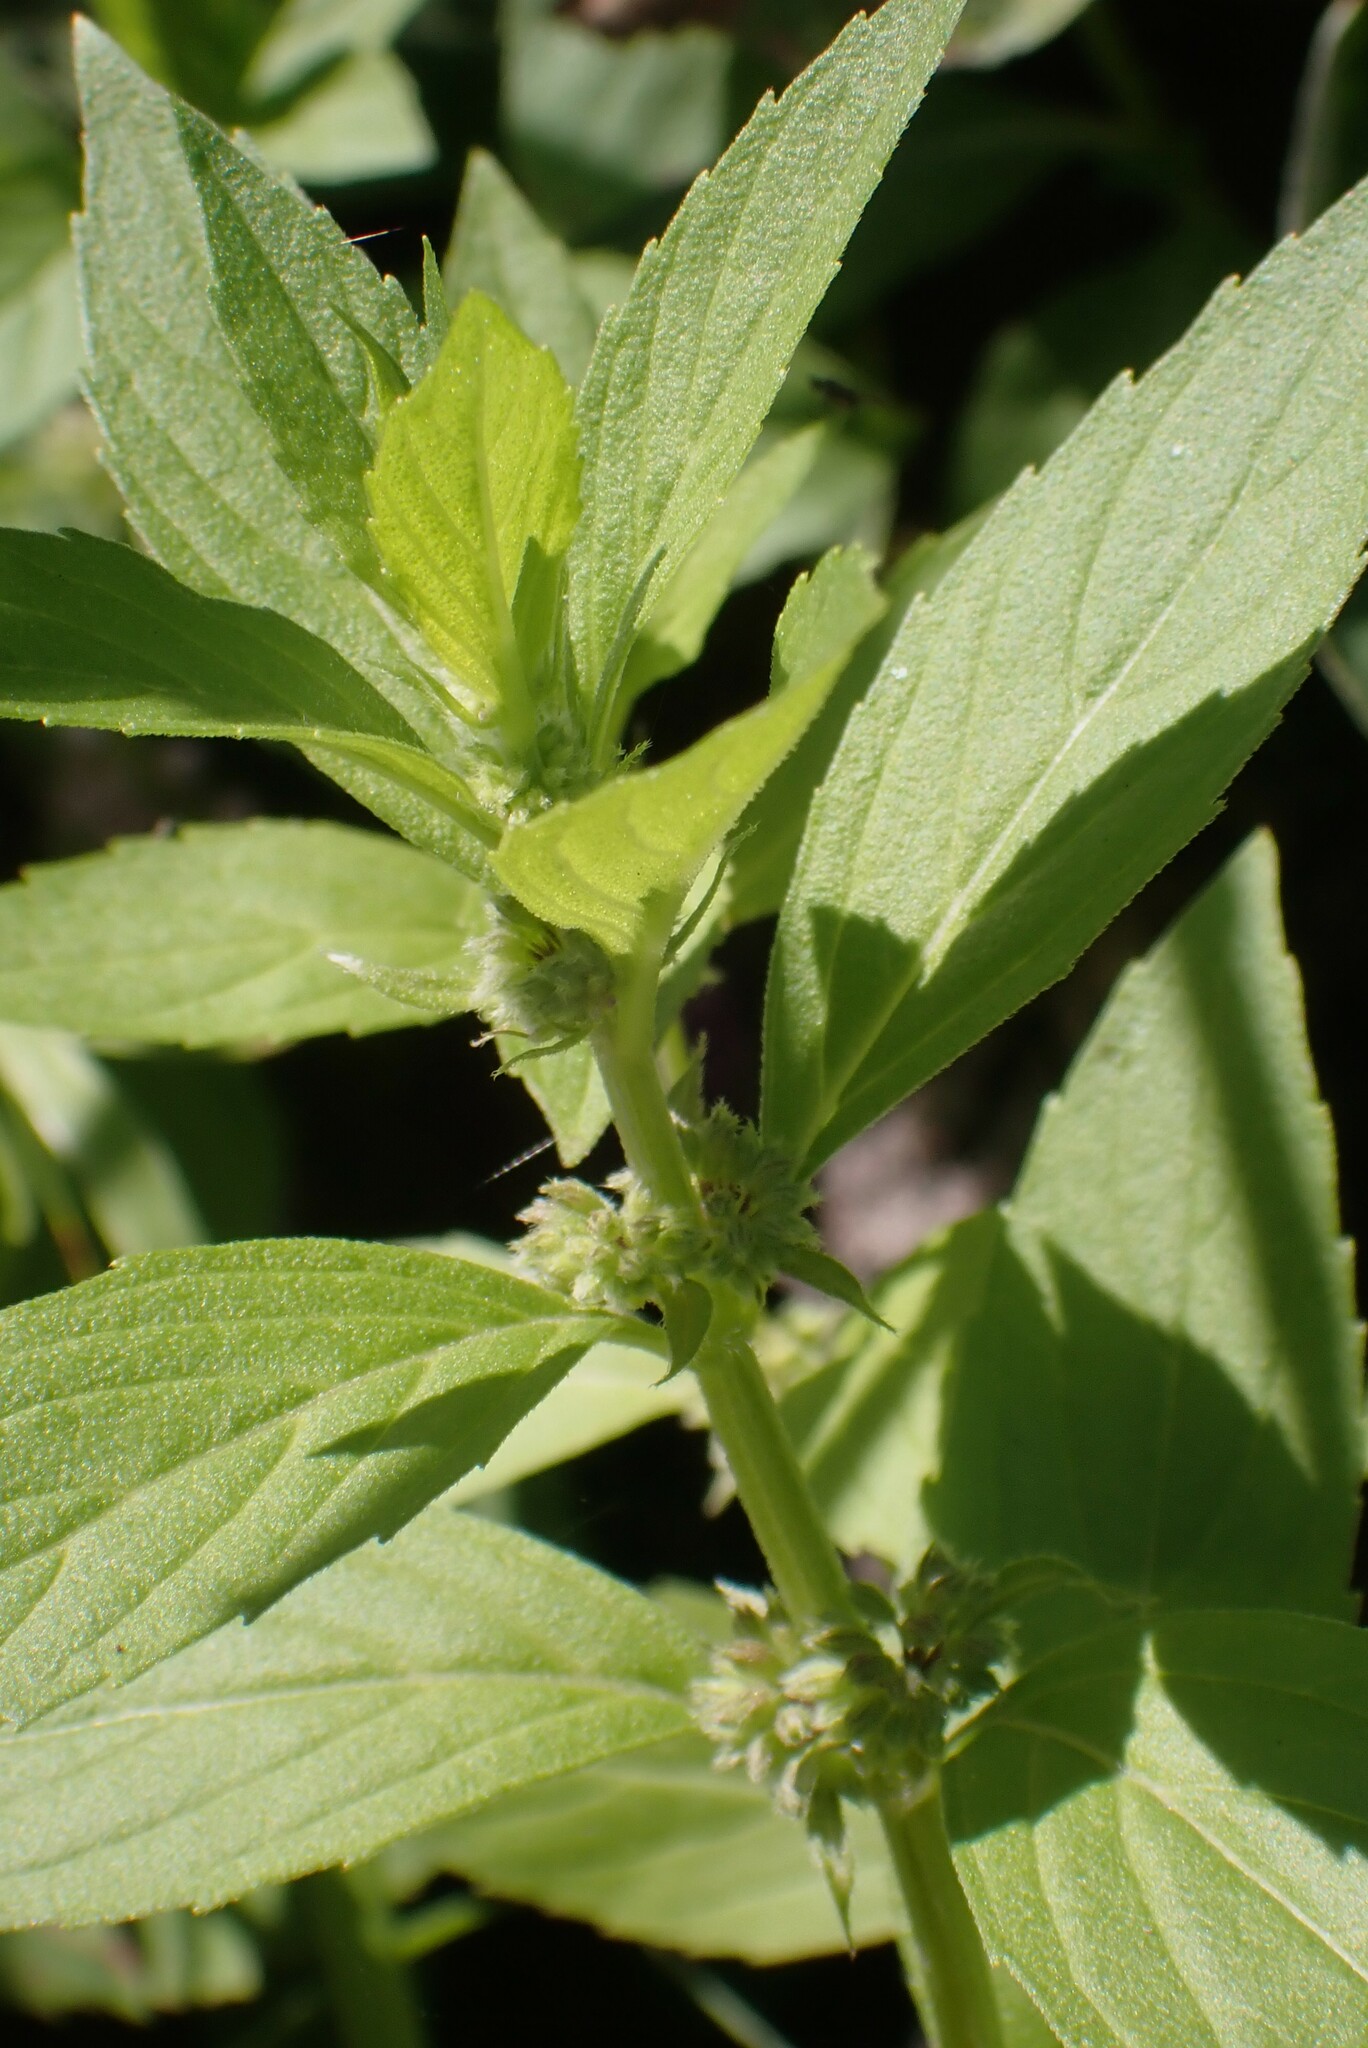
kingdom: Plantae
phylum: Tracheophyta
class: Magnoliopsida
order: Lamiales
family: Lamiaceae
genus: Mentha
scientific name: Mentha canadensis
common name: American corn mint
